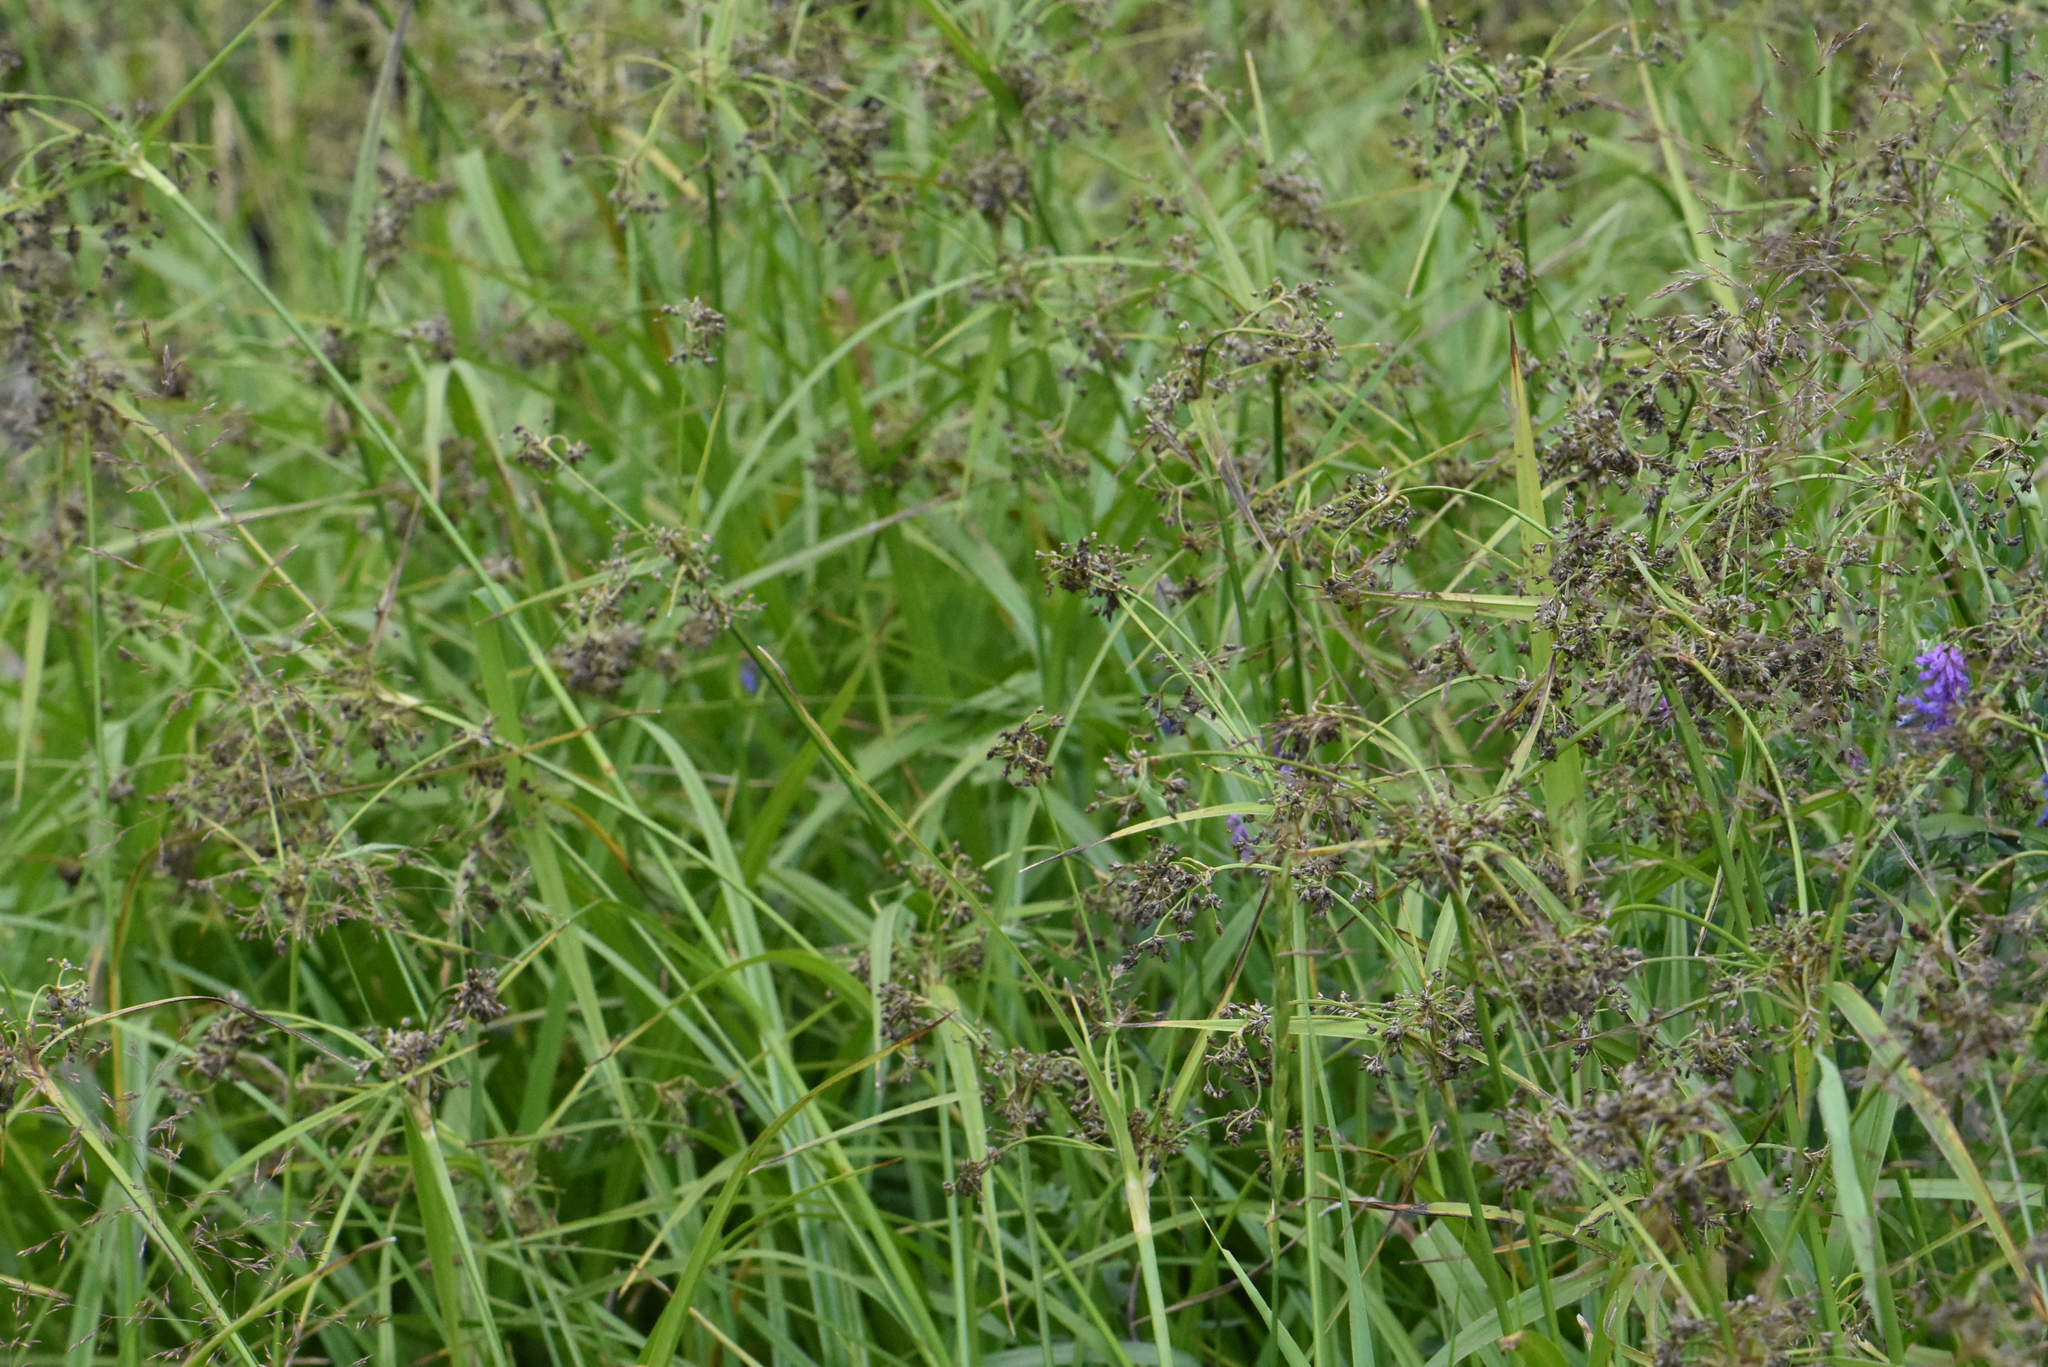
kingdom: Plantae
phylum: Tracheophyta
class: Liliopsida
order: Poales
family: Cyperaceae
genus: Scirpus
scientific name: Scirpus sylvaticus
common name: Wood club-rush
